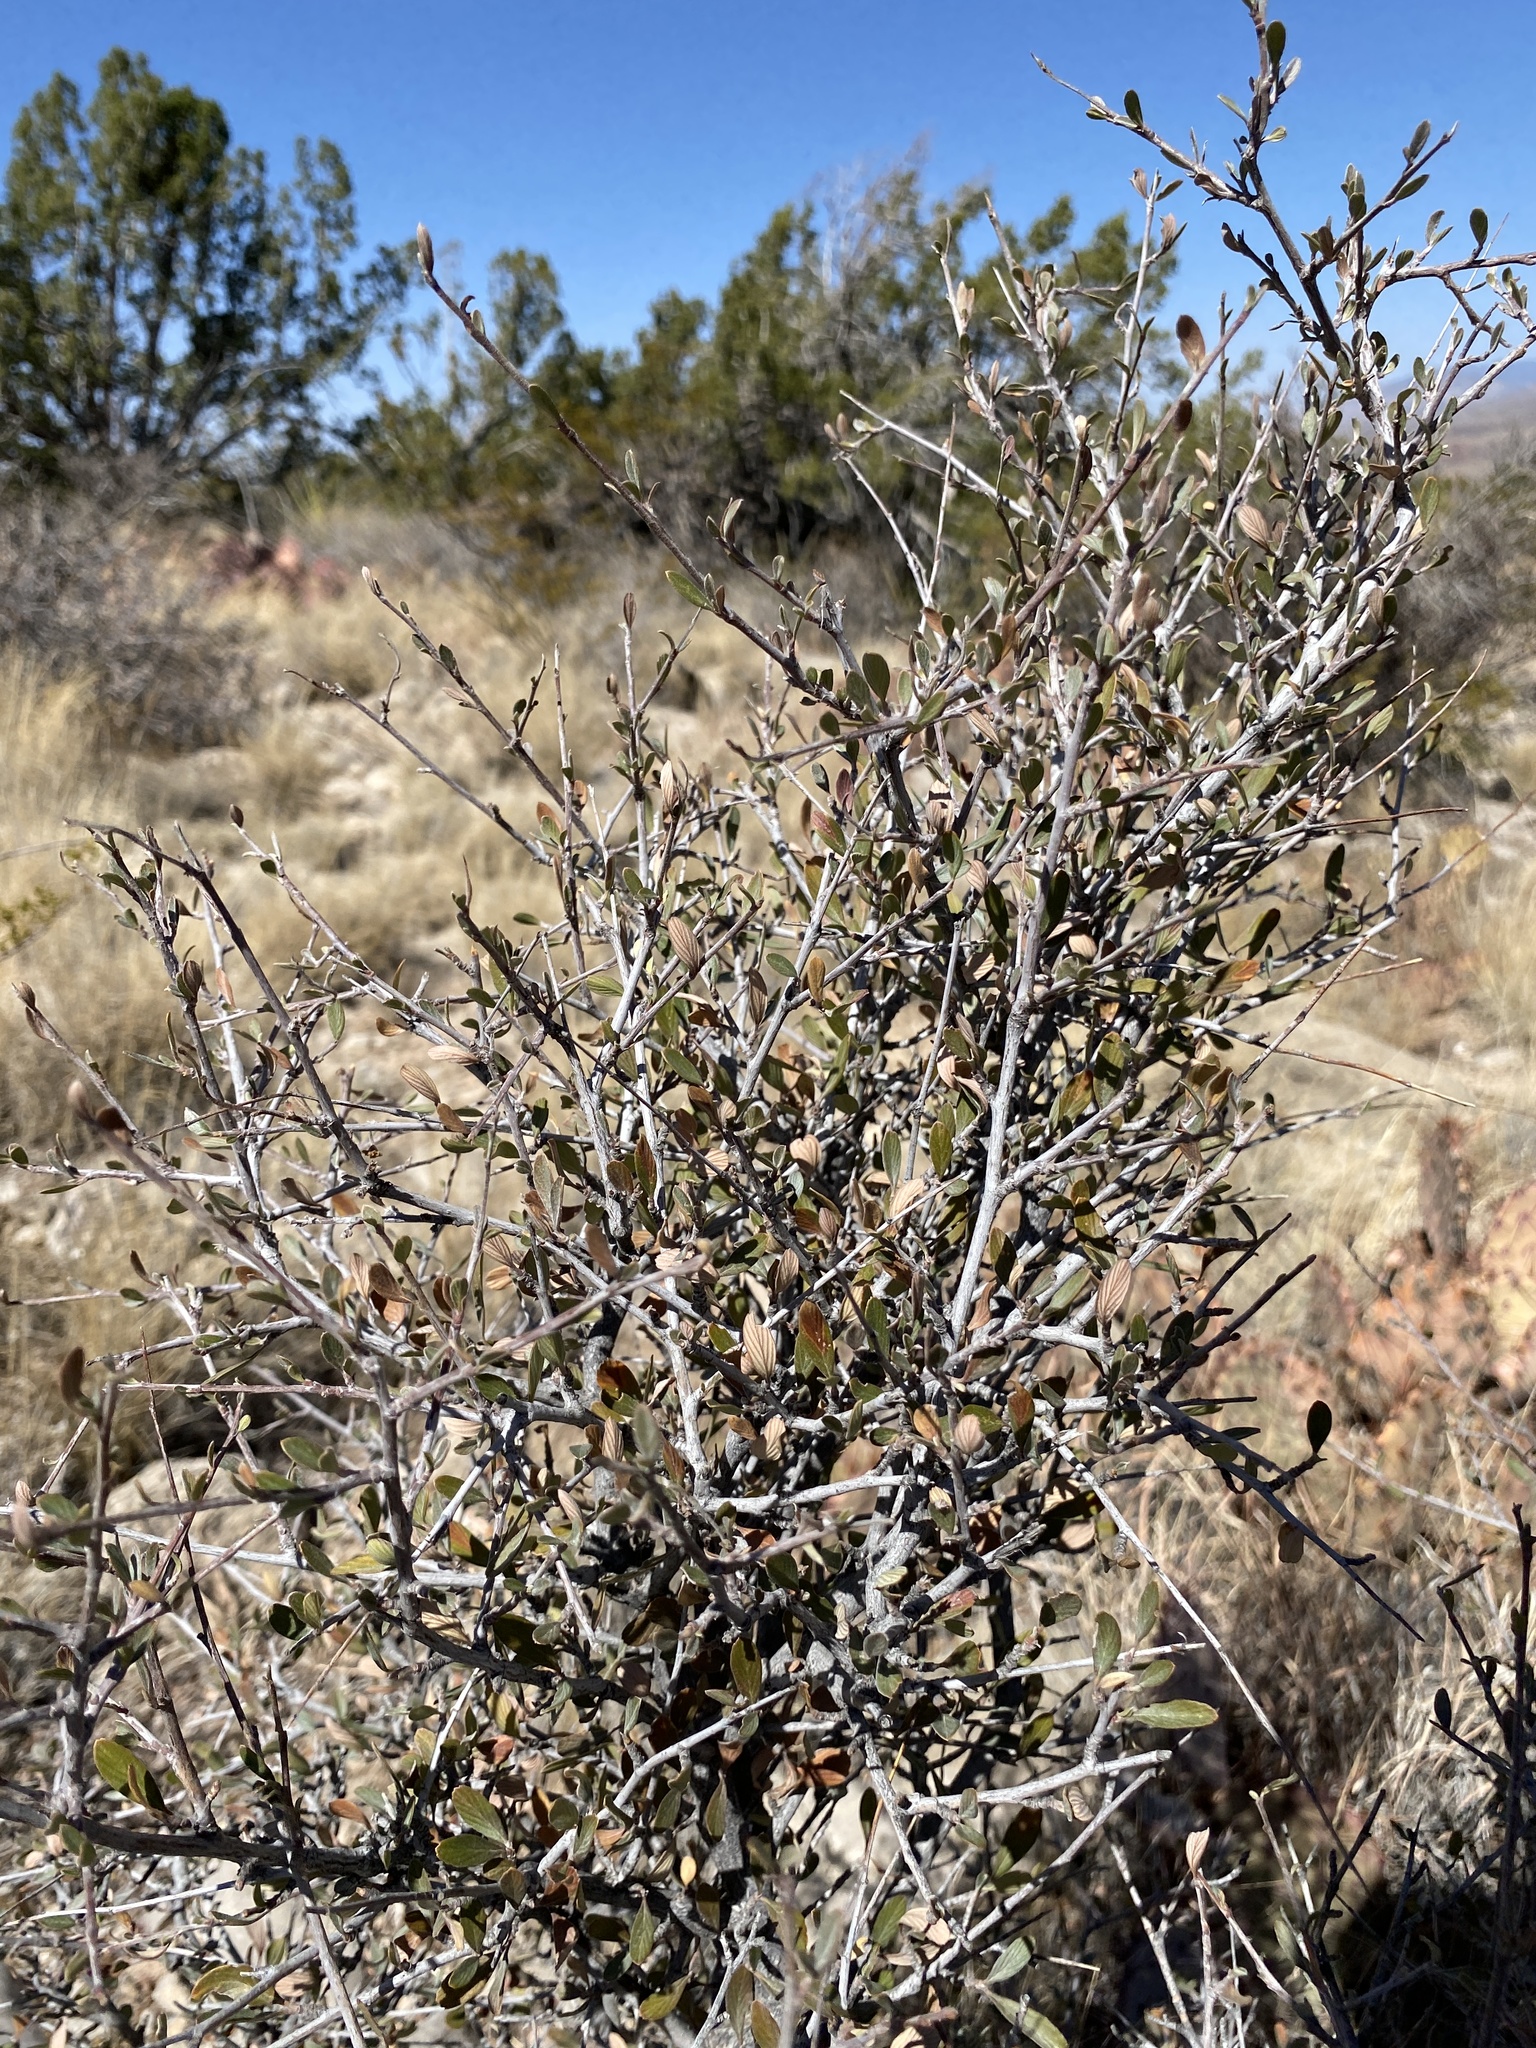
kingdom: Plantae
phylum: Tracheophyta
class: Magnoliopsida
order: Rosales
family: Rosaceae
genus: Cercocarpus
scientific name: Cercocarpus breviflorus
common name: Wright's mountain-mahogany
